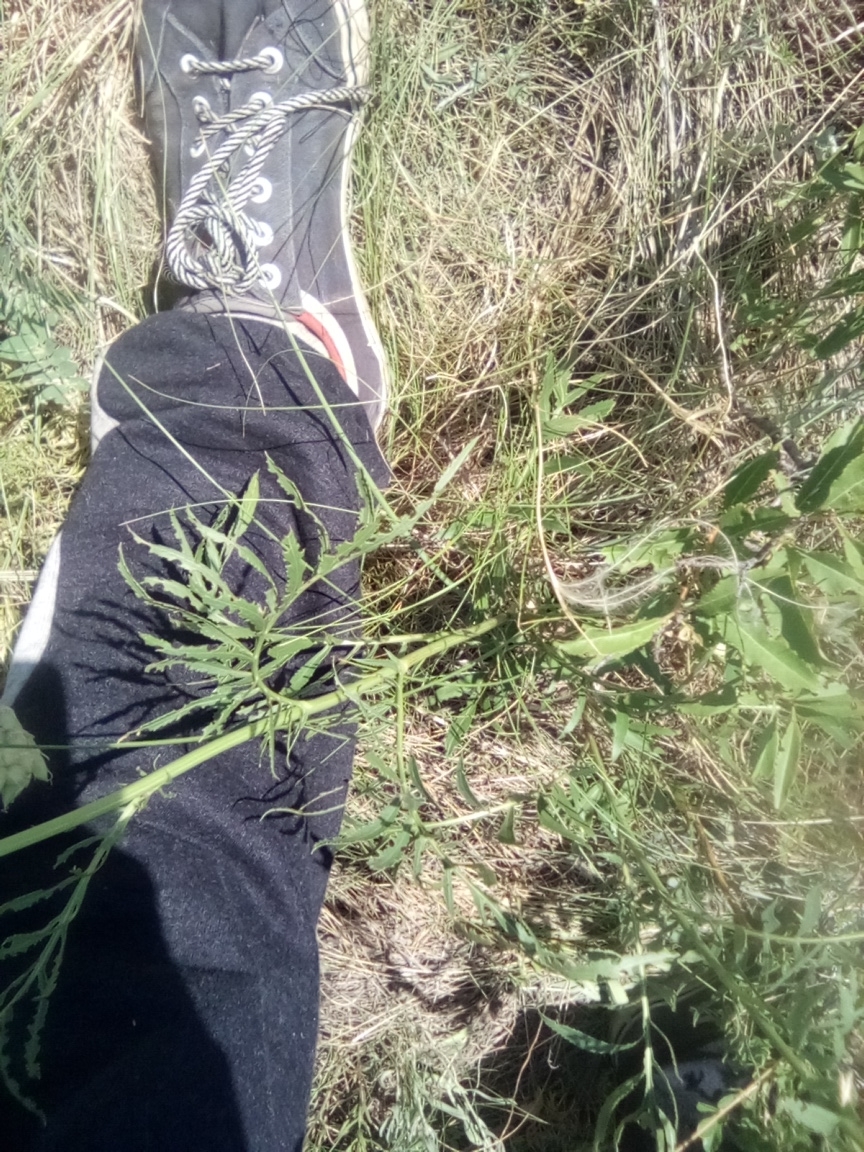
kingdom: Plantae
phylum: Tracheophyta
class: Magnoliopsida
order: Asterales
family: Asteraceae
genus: Rhaponticoides
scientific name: Rhaponticoides ruthenica
